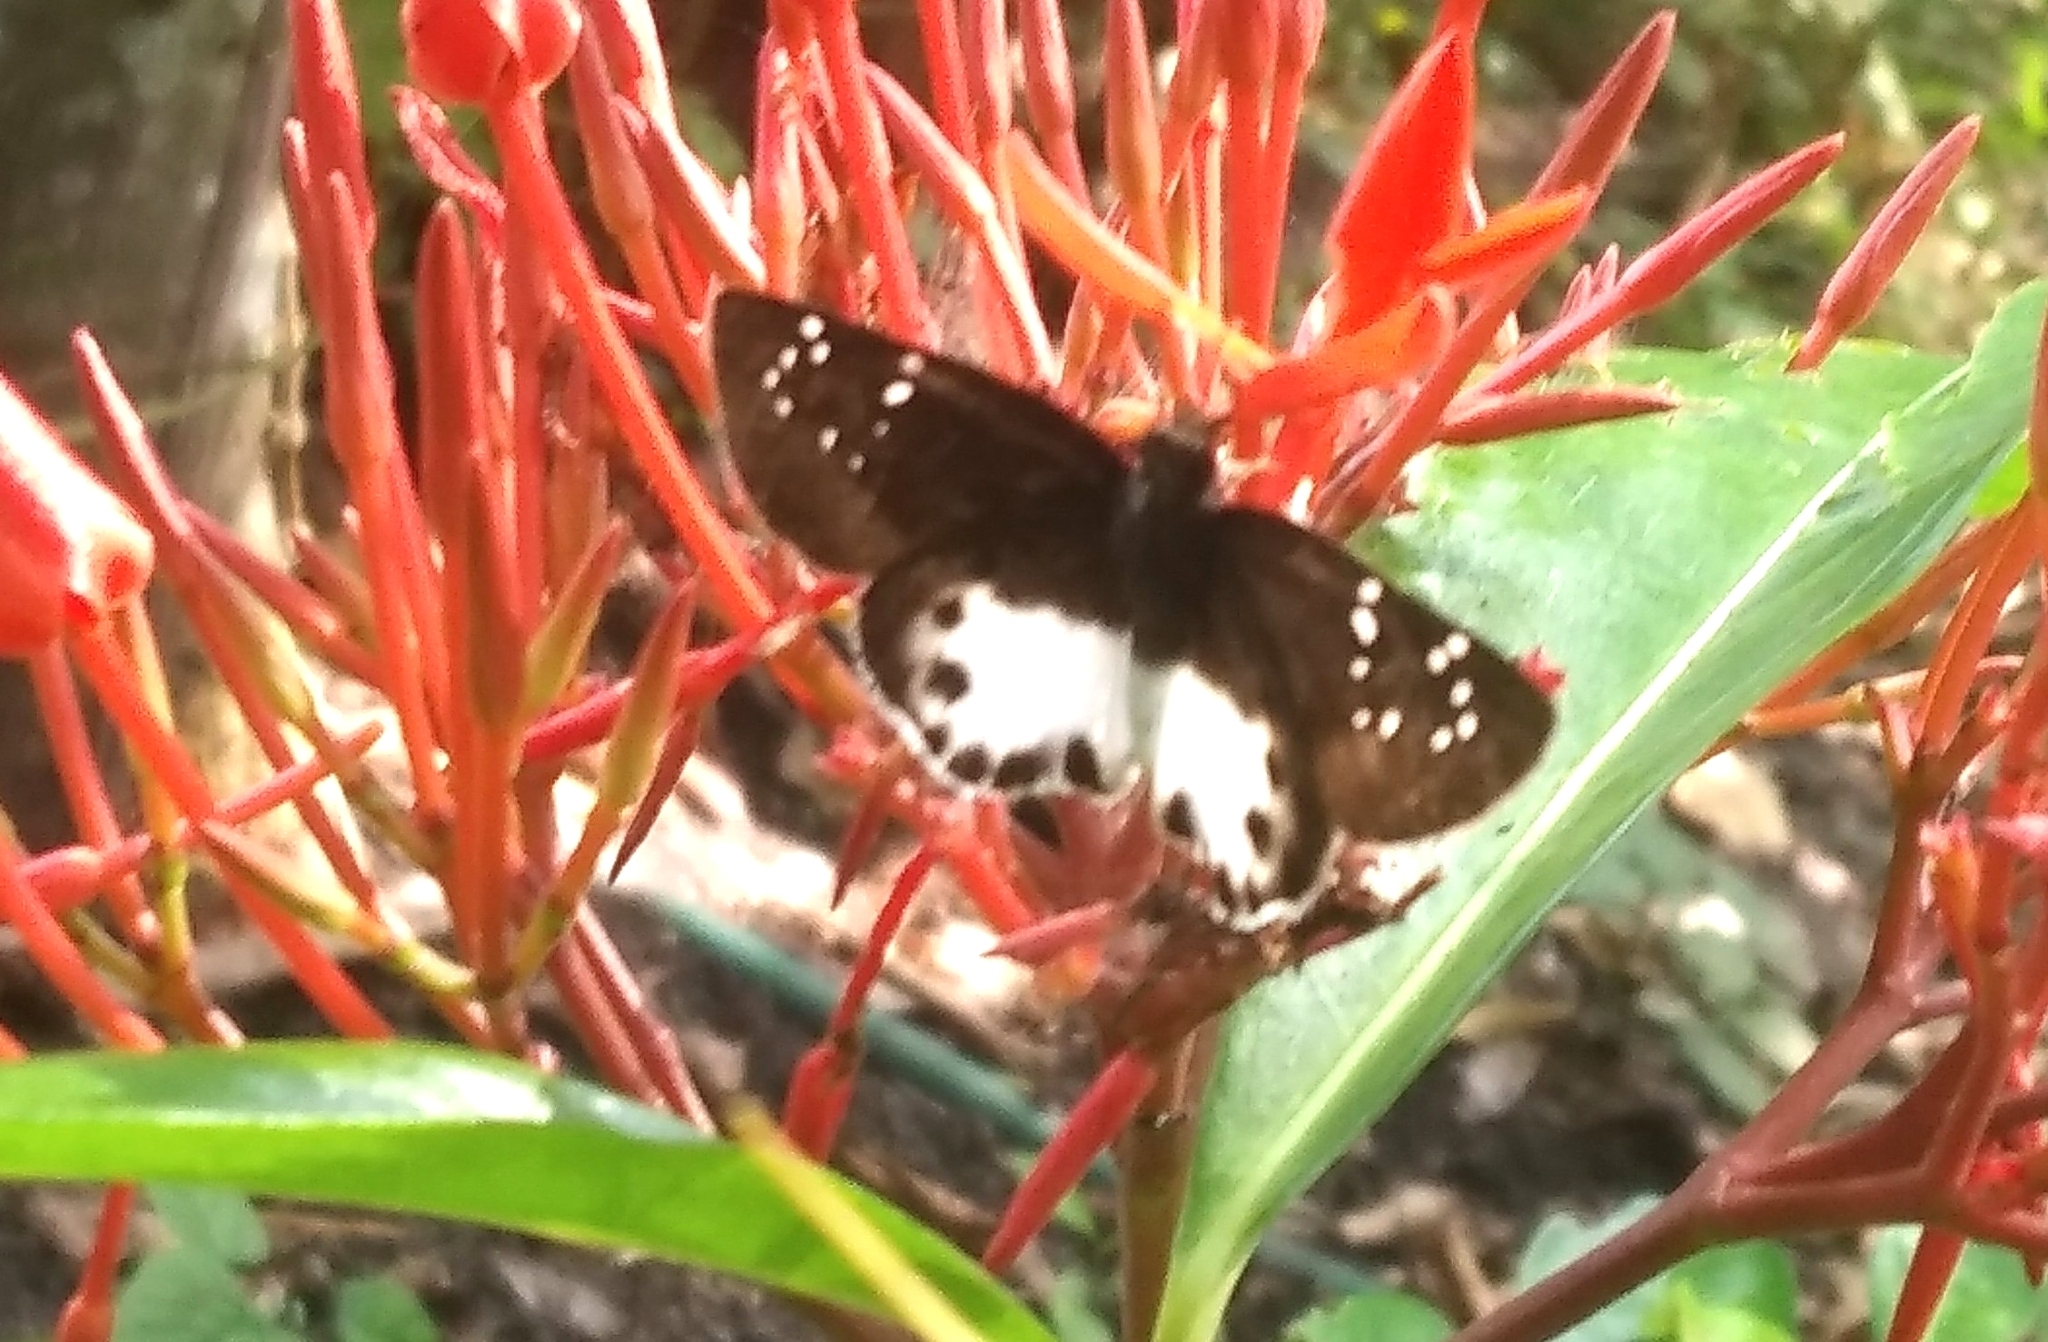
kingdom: Animalia
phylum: Arthropoda
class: Insecta
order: Lepidoptera
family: Hesperiidae
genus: Tagiades
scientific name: Tagiades litigiosa
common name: Water snow flat
